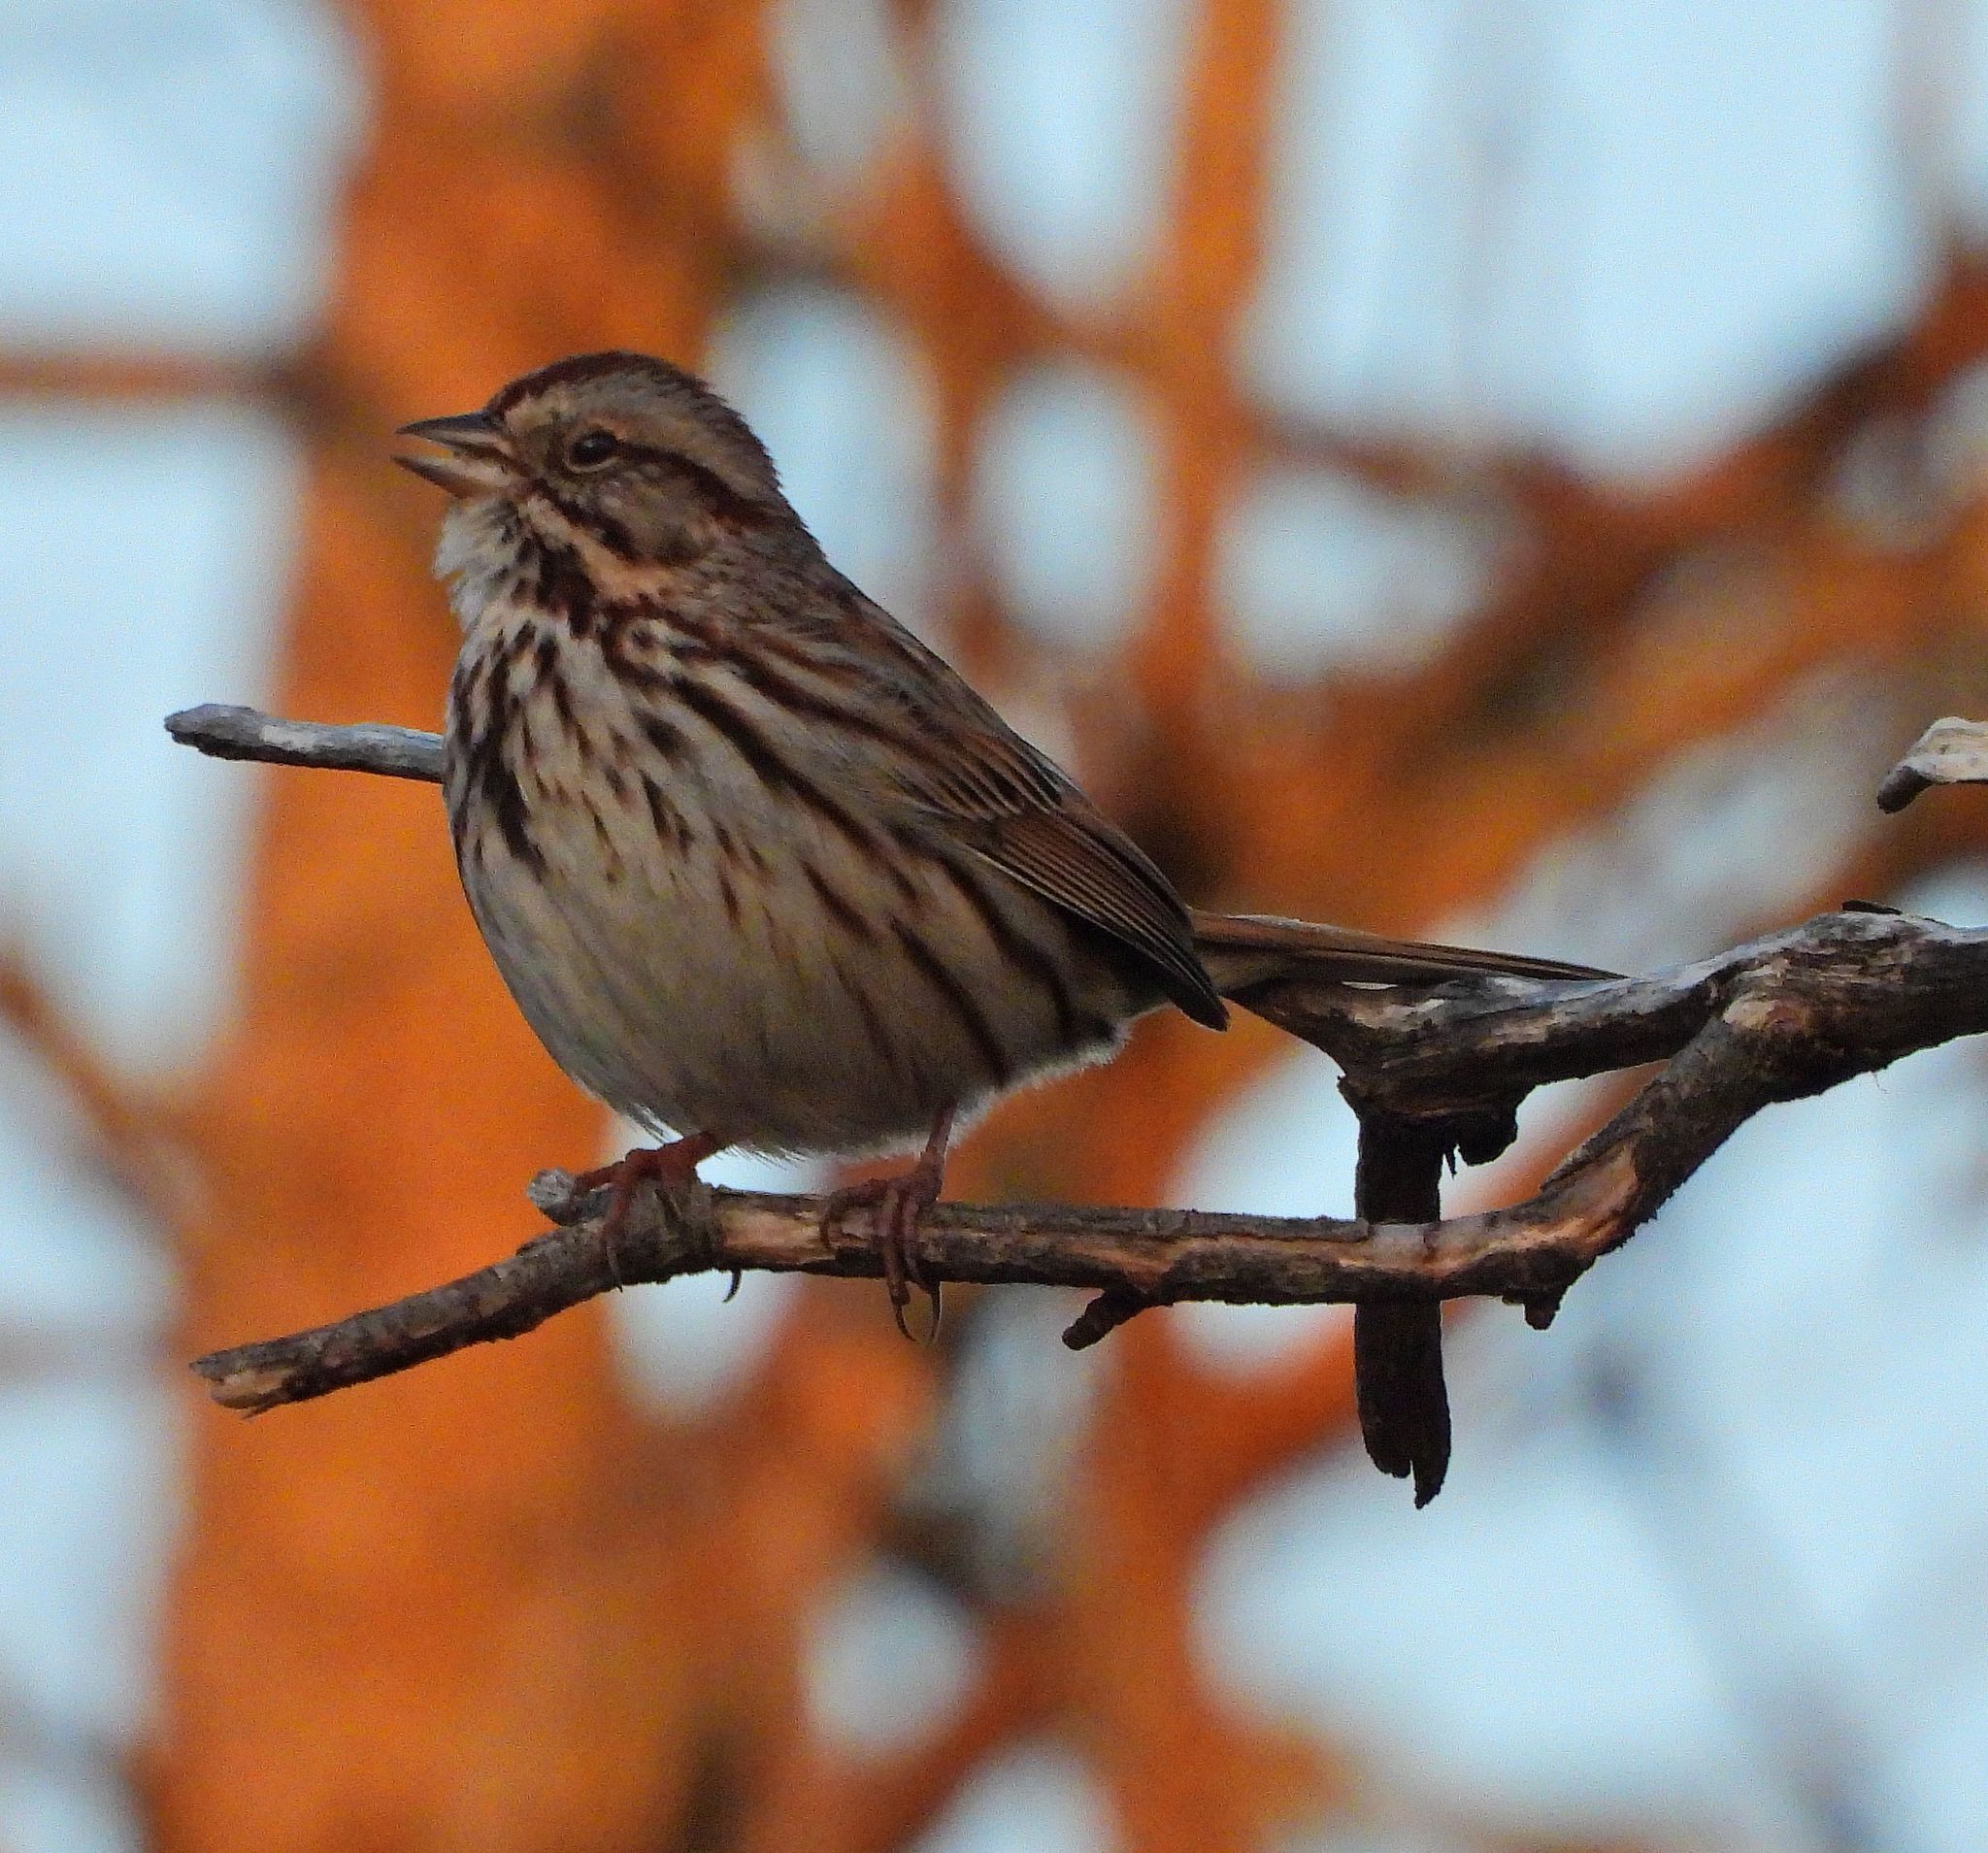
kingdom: Animalia
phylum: Chordata
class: Aves
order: Passeriformes
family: Passerellidae
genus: Melospiza
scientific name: Melospiza melodia
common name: Song sparrow
